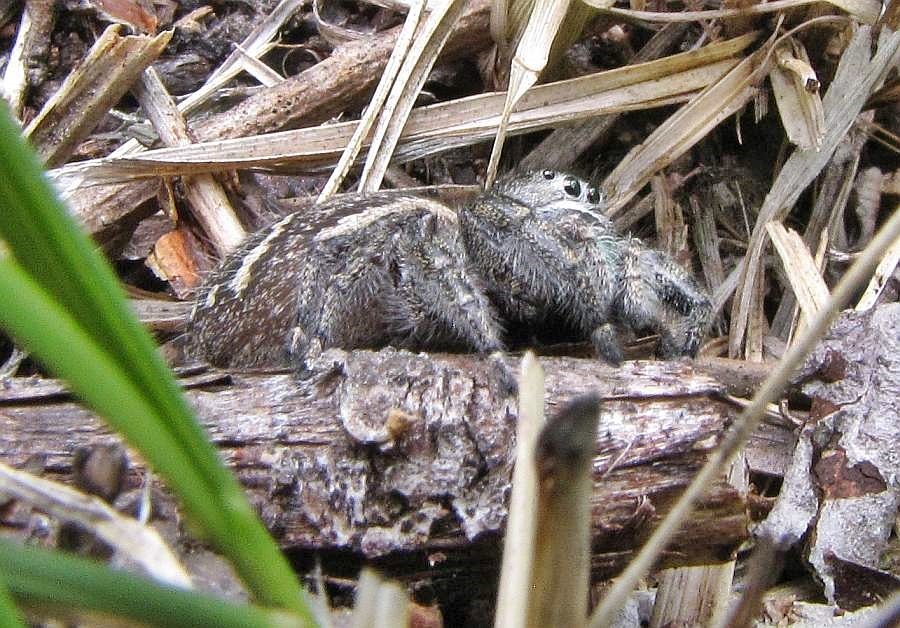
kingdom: Animalia
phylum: Arthropoda
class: Arachnida
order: Araneae
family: Salticidae
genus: Phidippus
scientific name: Phidippus purpuratus
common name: Marbled purple jumping spider
